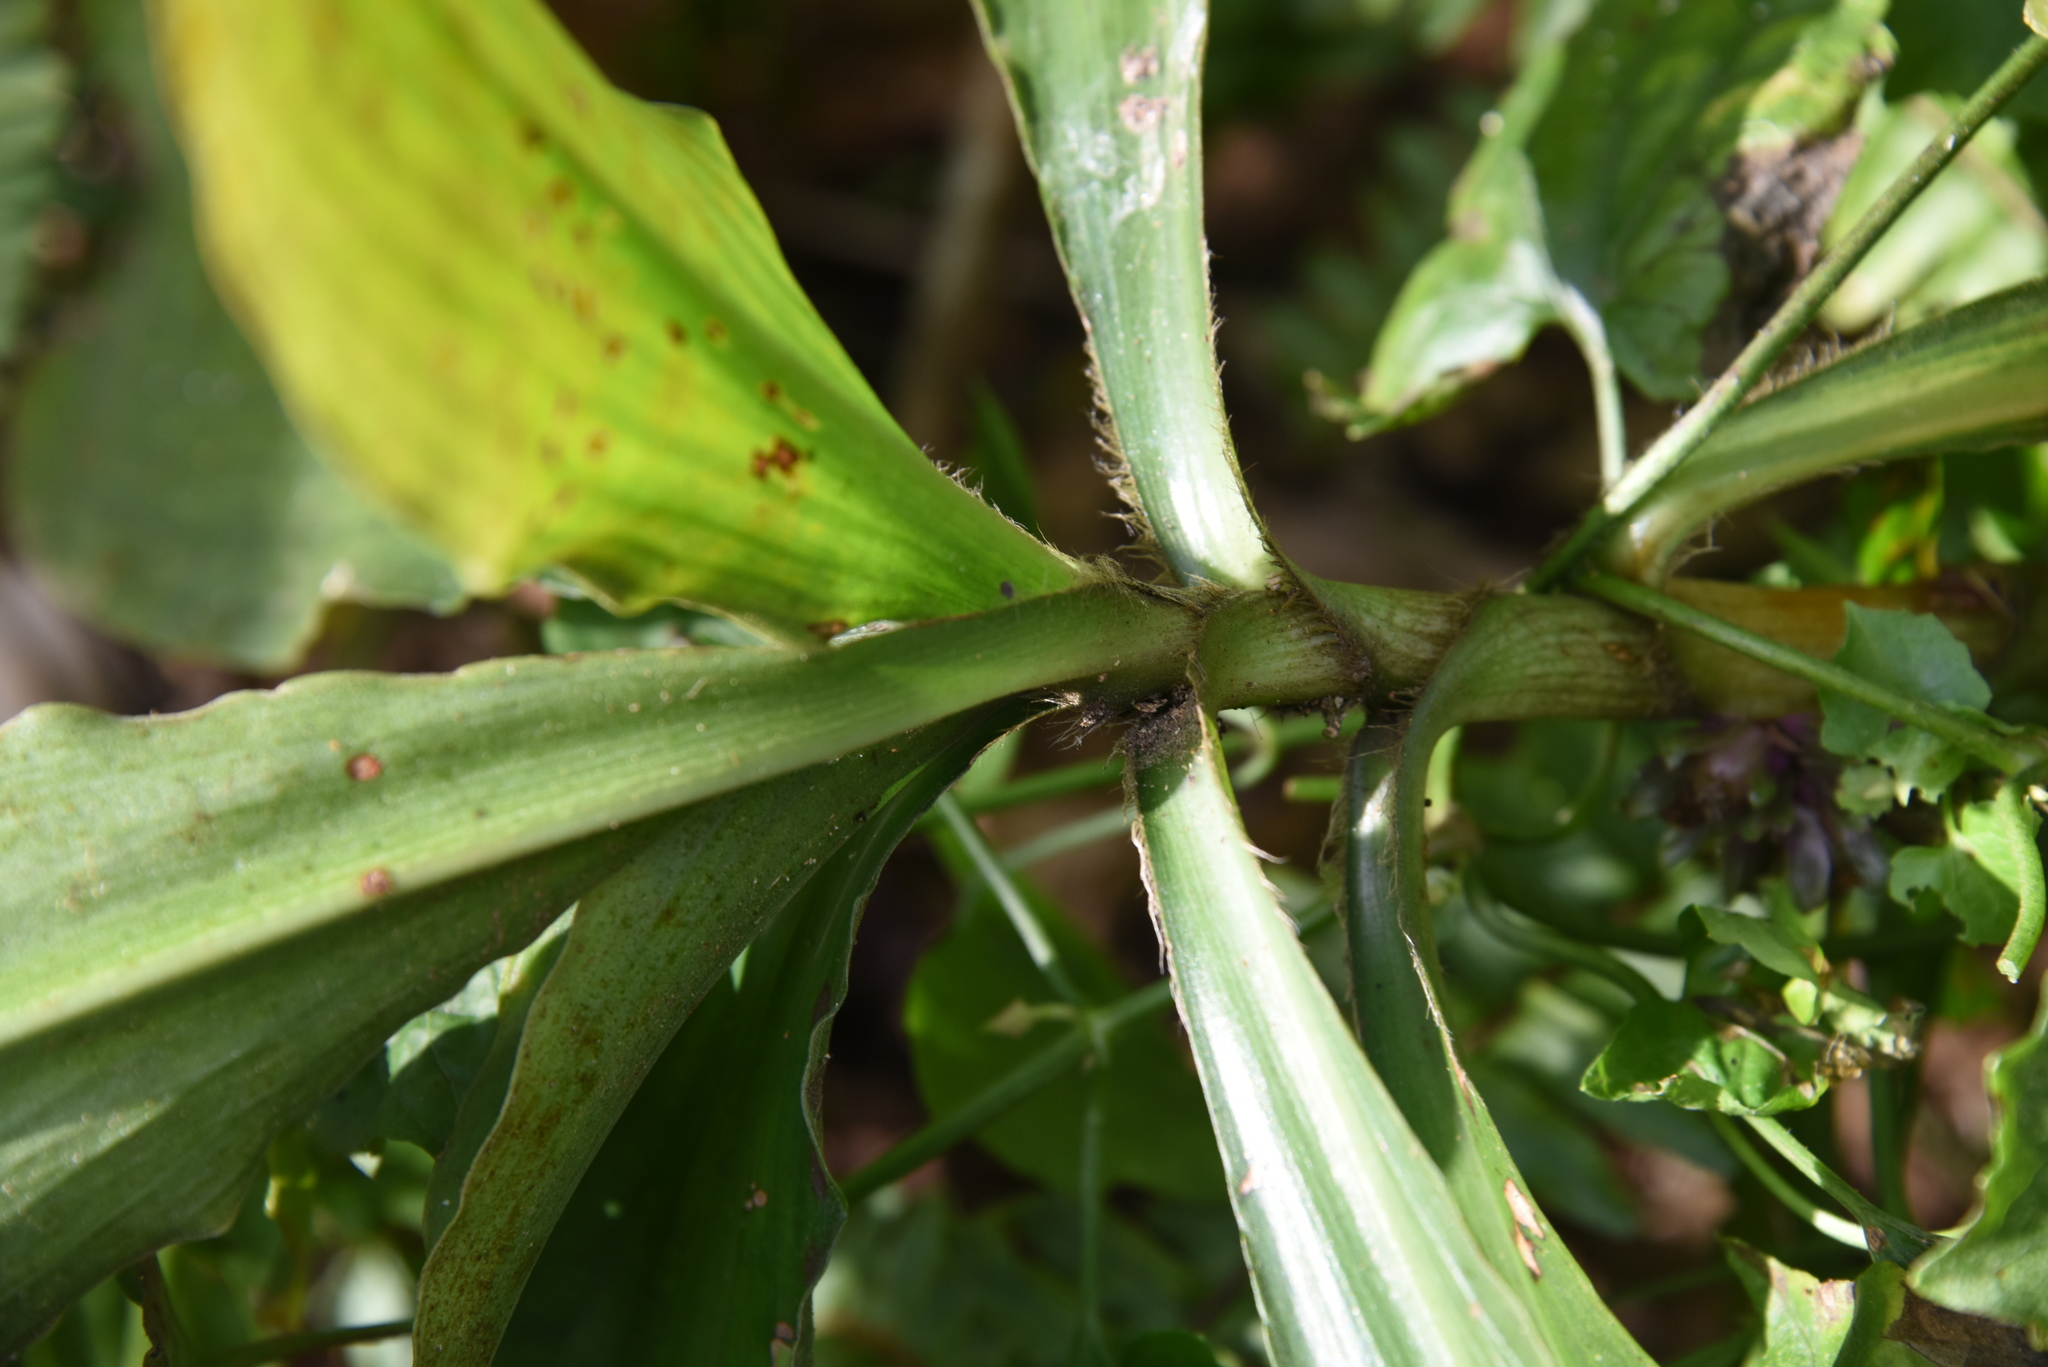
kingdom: Plantae
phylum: Tracheophyta
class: Liliopsida
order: Commelinales
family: Commelinaceae
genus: Amischotolype
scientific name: Amischotolype glabrata
